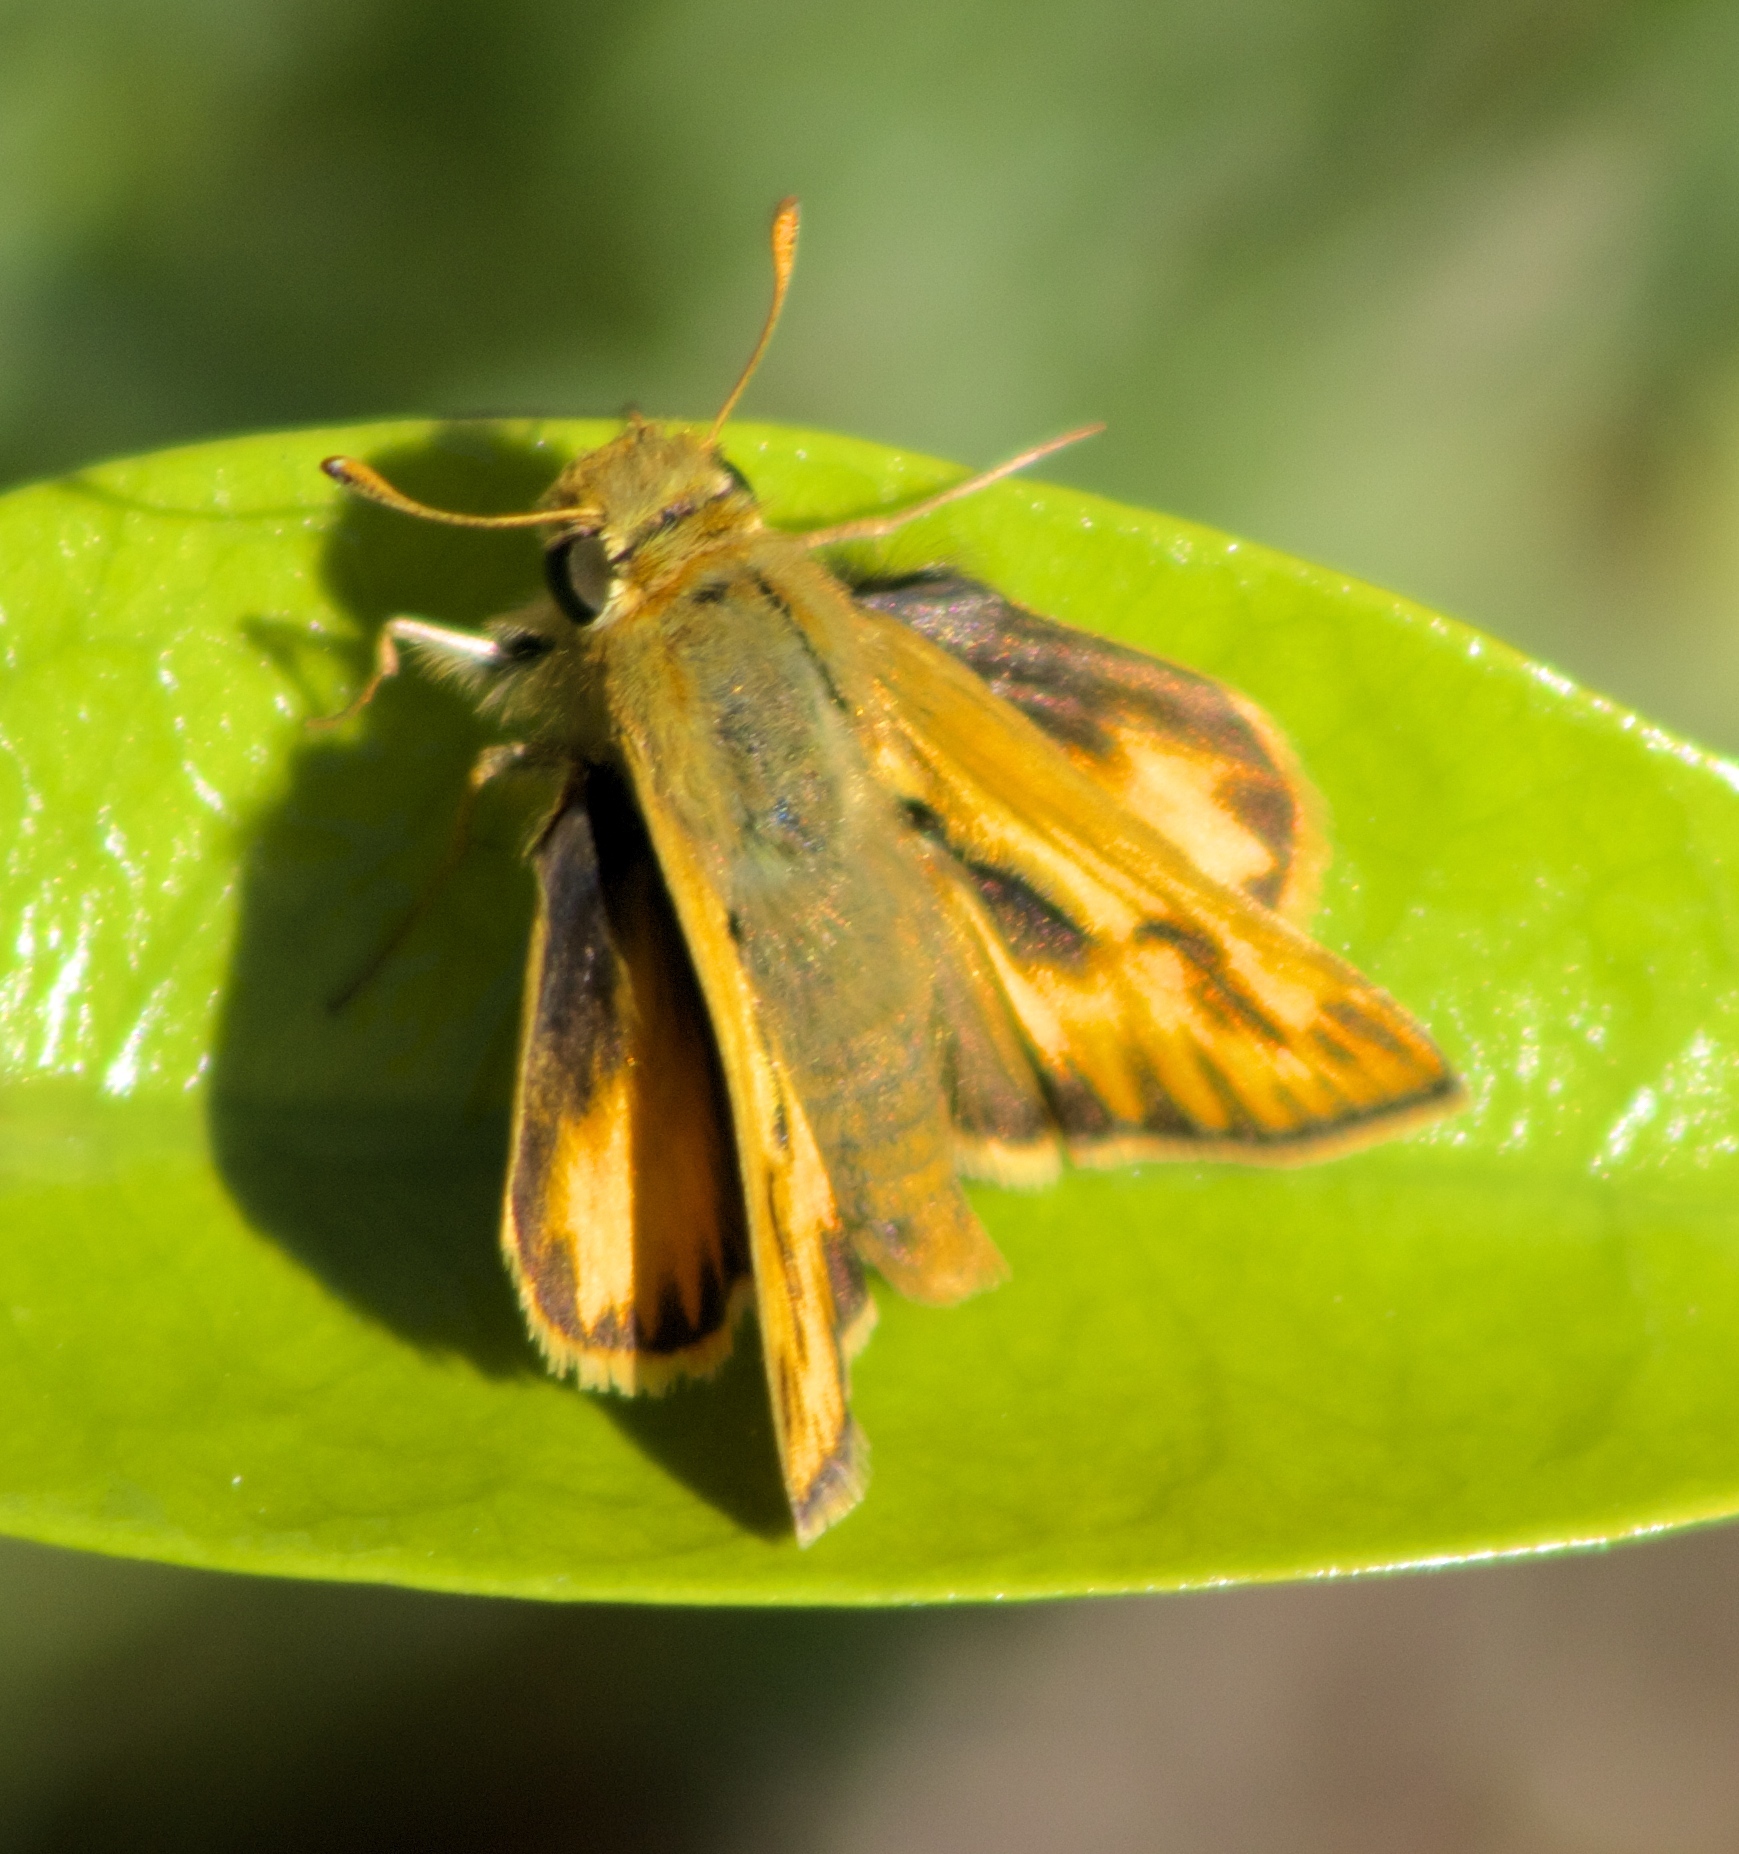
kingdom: Animalia
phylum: Arthropoda
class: Insecta
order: Lepidoptera
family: Hesperiidae
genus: Hylephila
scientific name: Hylephila phyleus
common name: Fiery skipper
